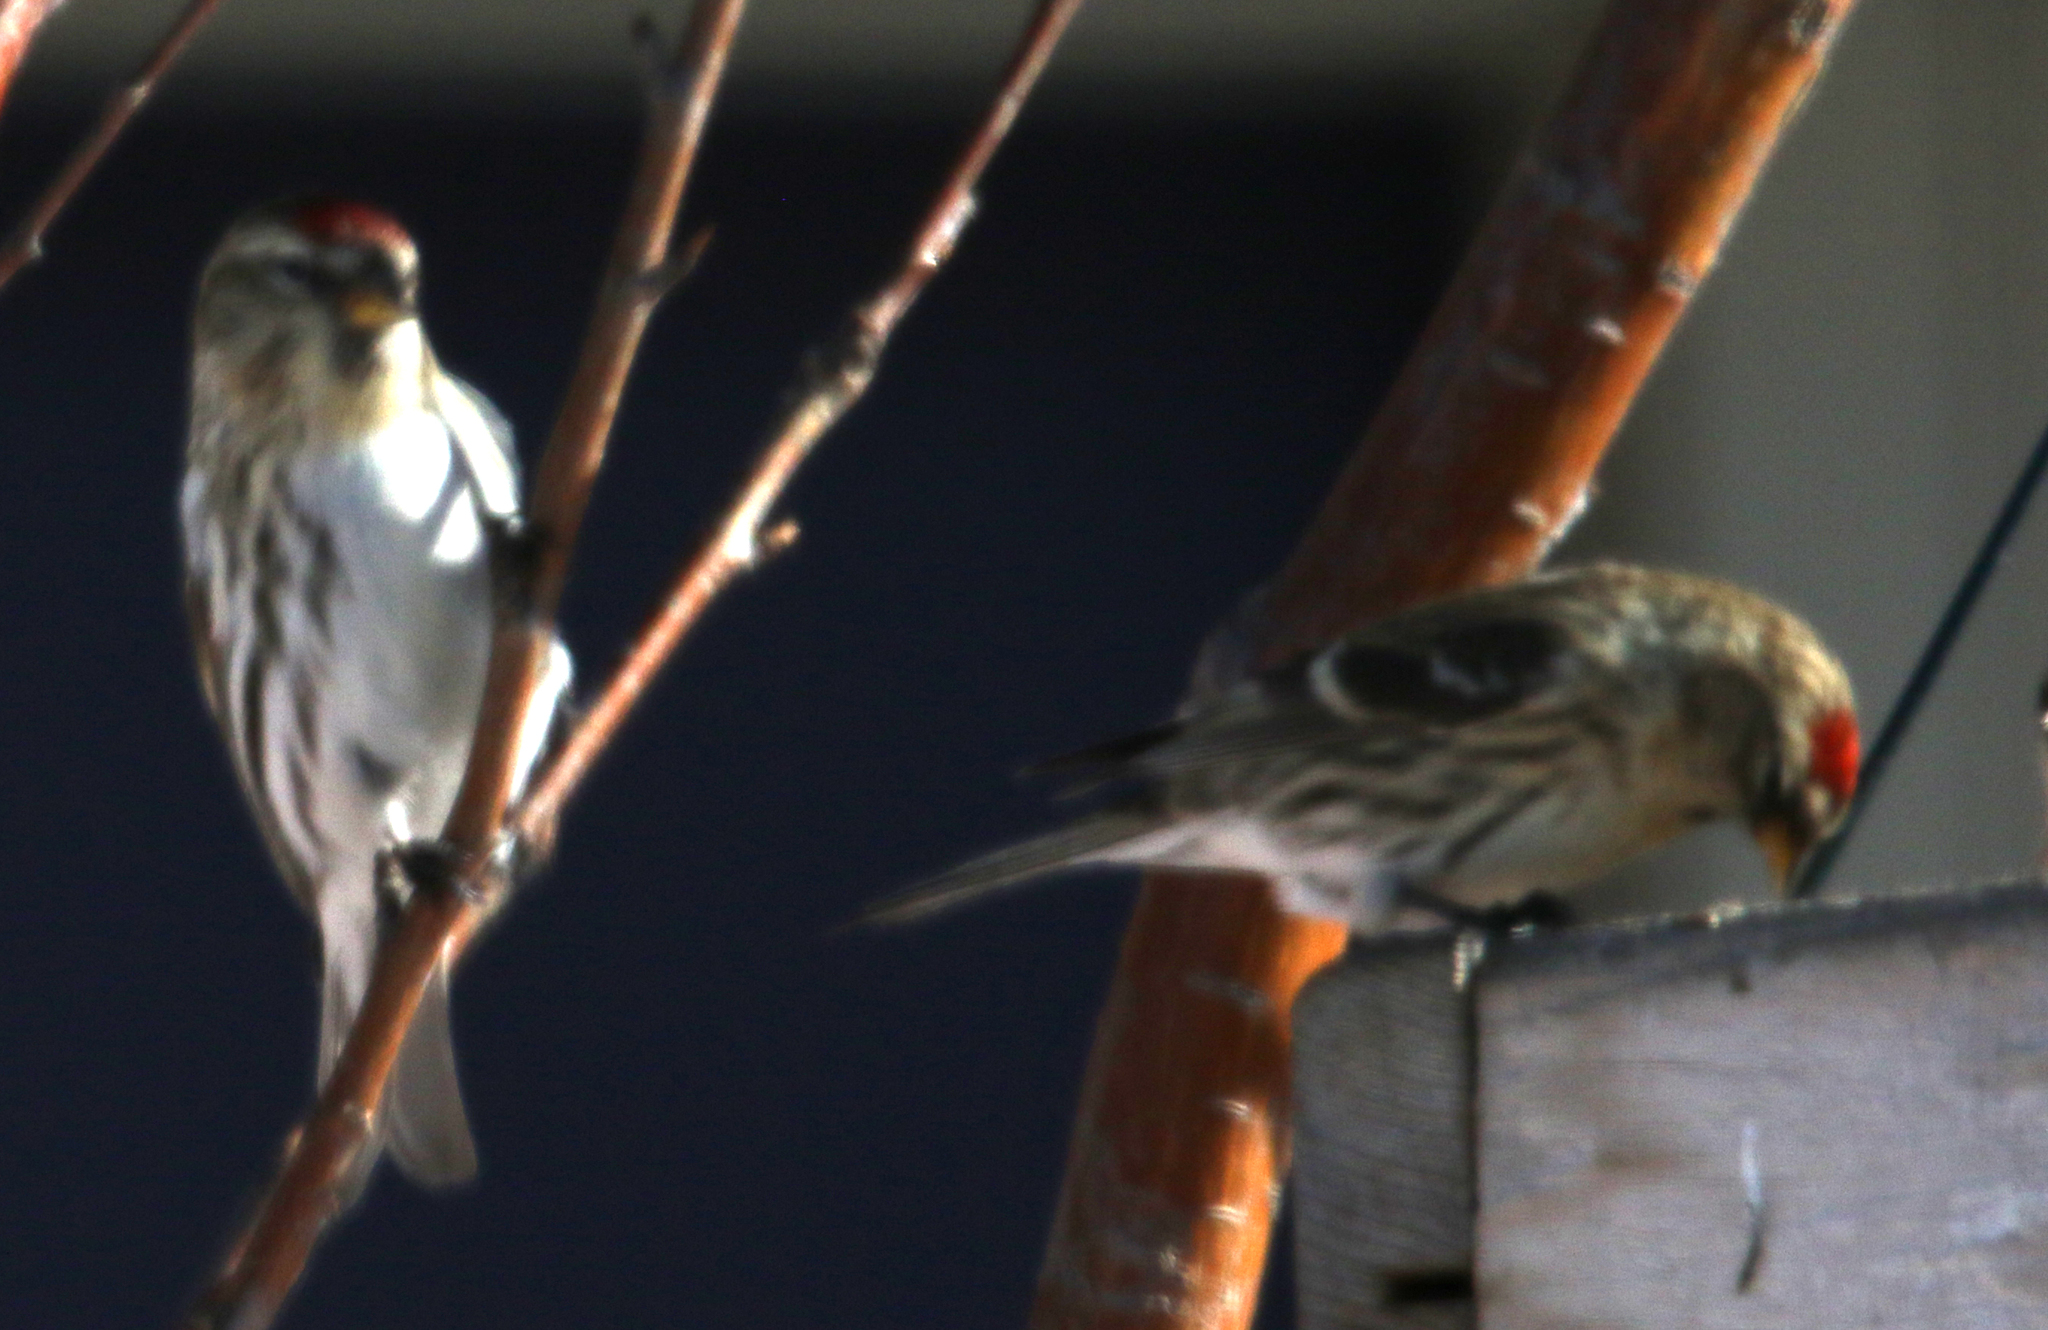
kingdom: Animalia
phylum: Chordata
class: Aves
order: Passeriformes
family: Fringillidae
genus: Acanthis
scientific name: Acanthis flammea
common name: Common redpoll
